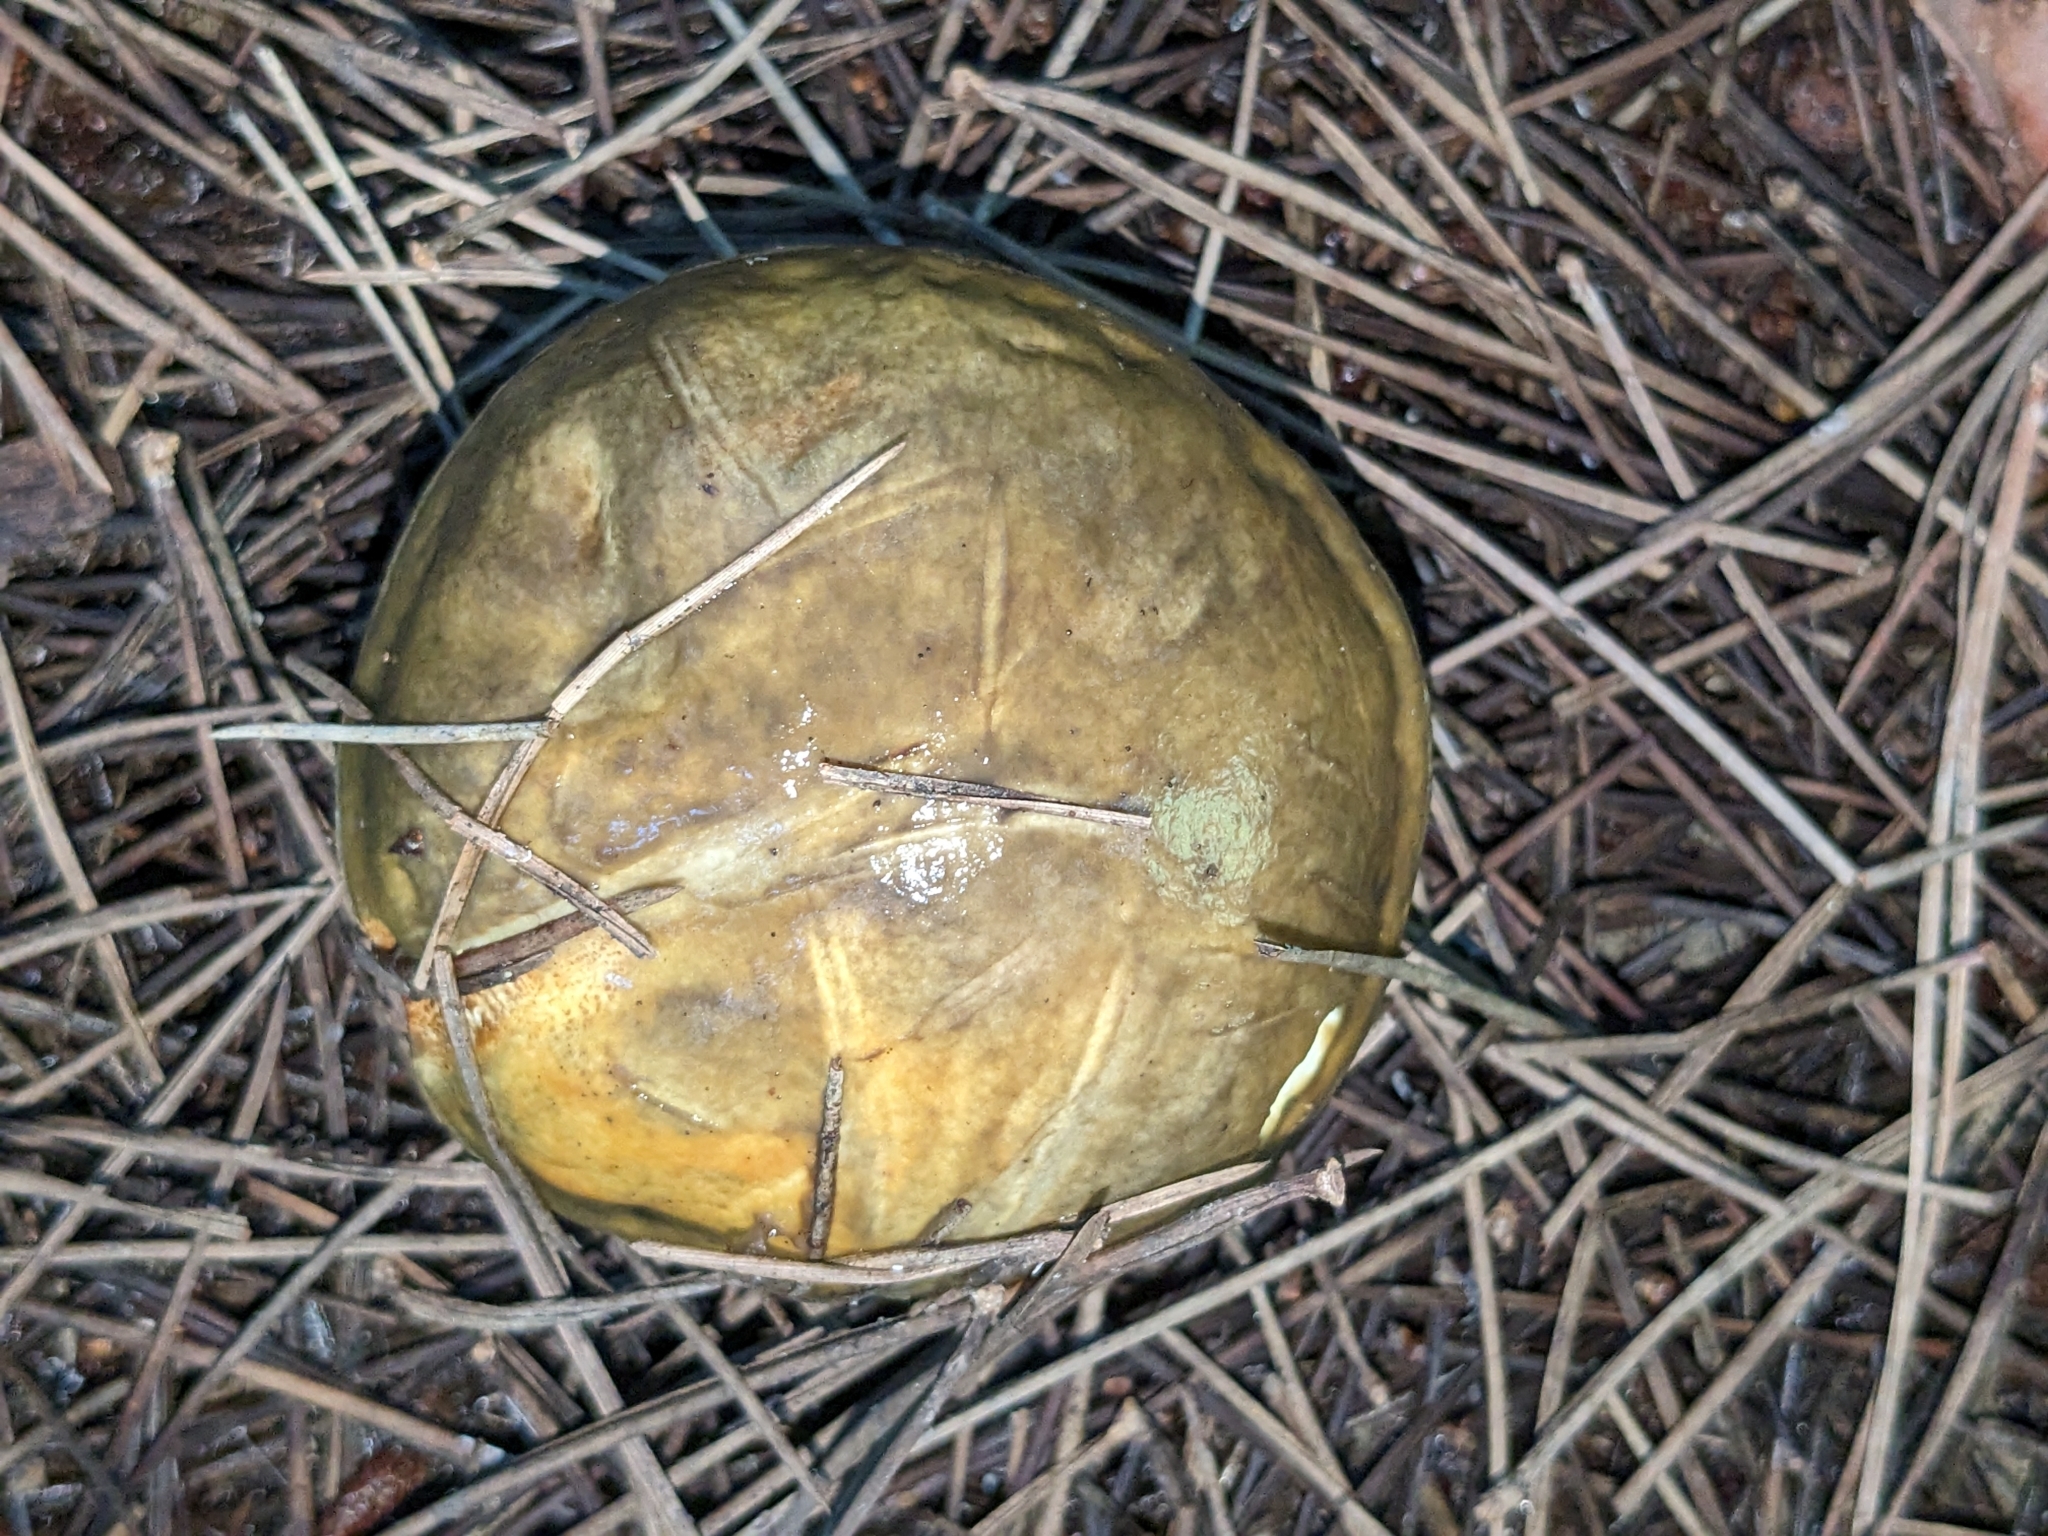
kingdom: Fungi
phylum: Basidiomycota
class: Agaricomycetes
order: Boletales
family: Suillaceae
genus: Suillus
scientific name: Suillus pungens
